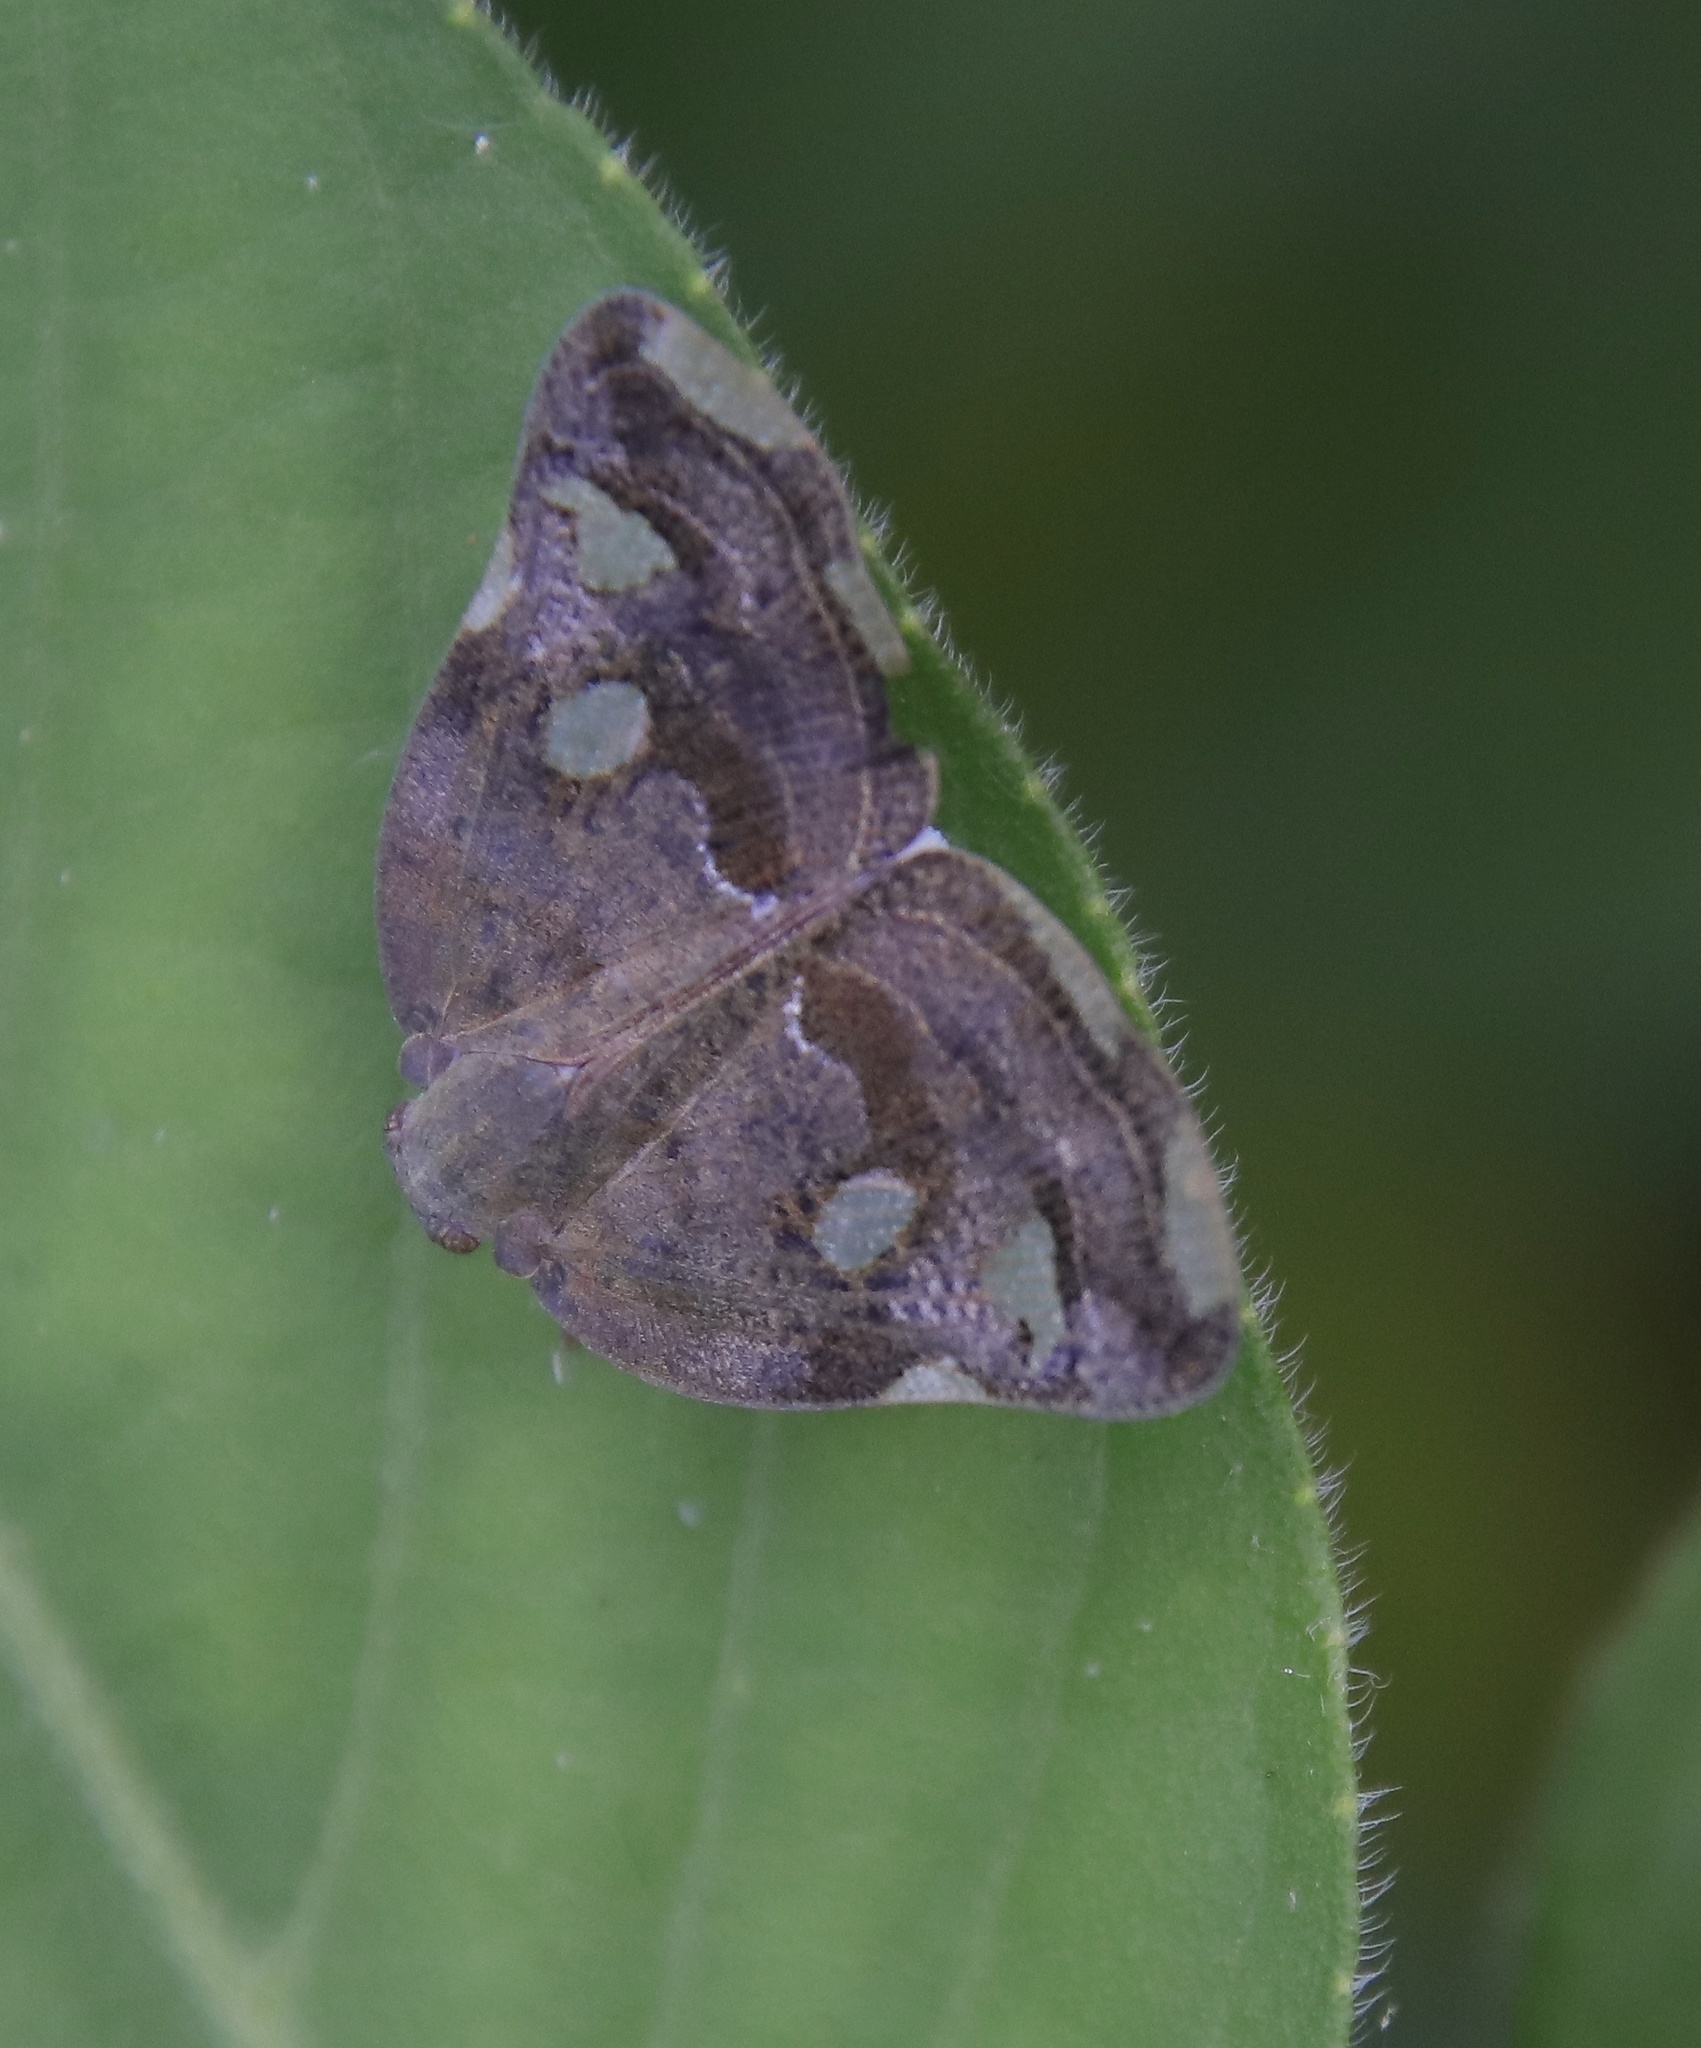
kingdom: Animalia
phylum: Arthropoda
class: Insecta
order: Hemiptera
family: Ricaniidae
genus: Ricania
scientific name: Ricania speculum
